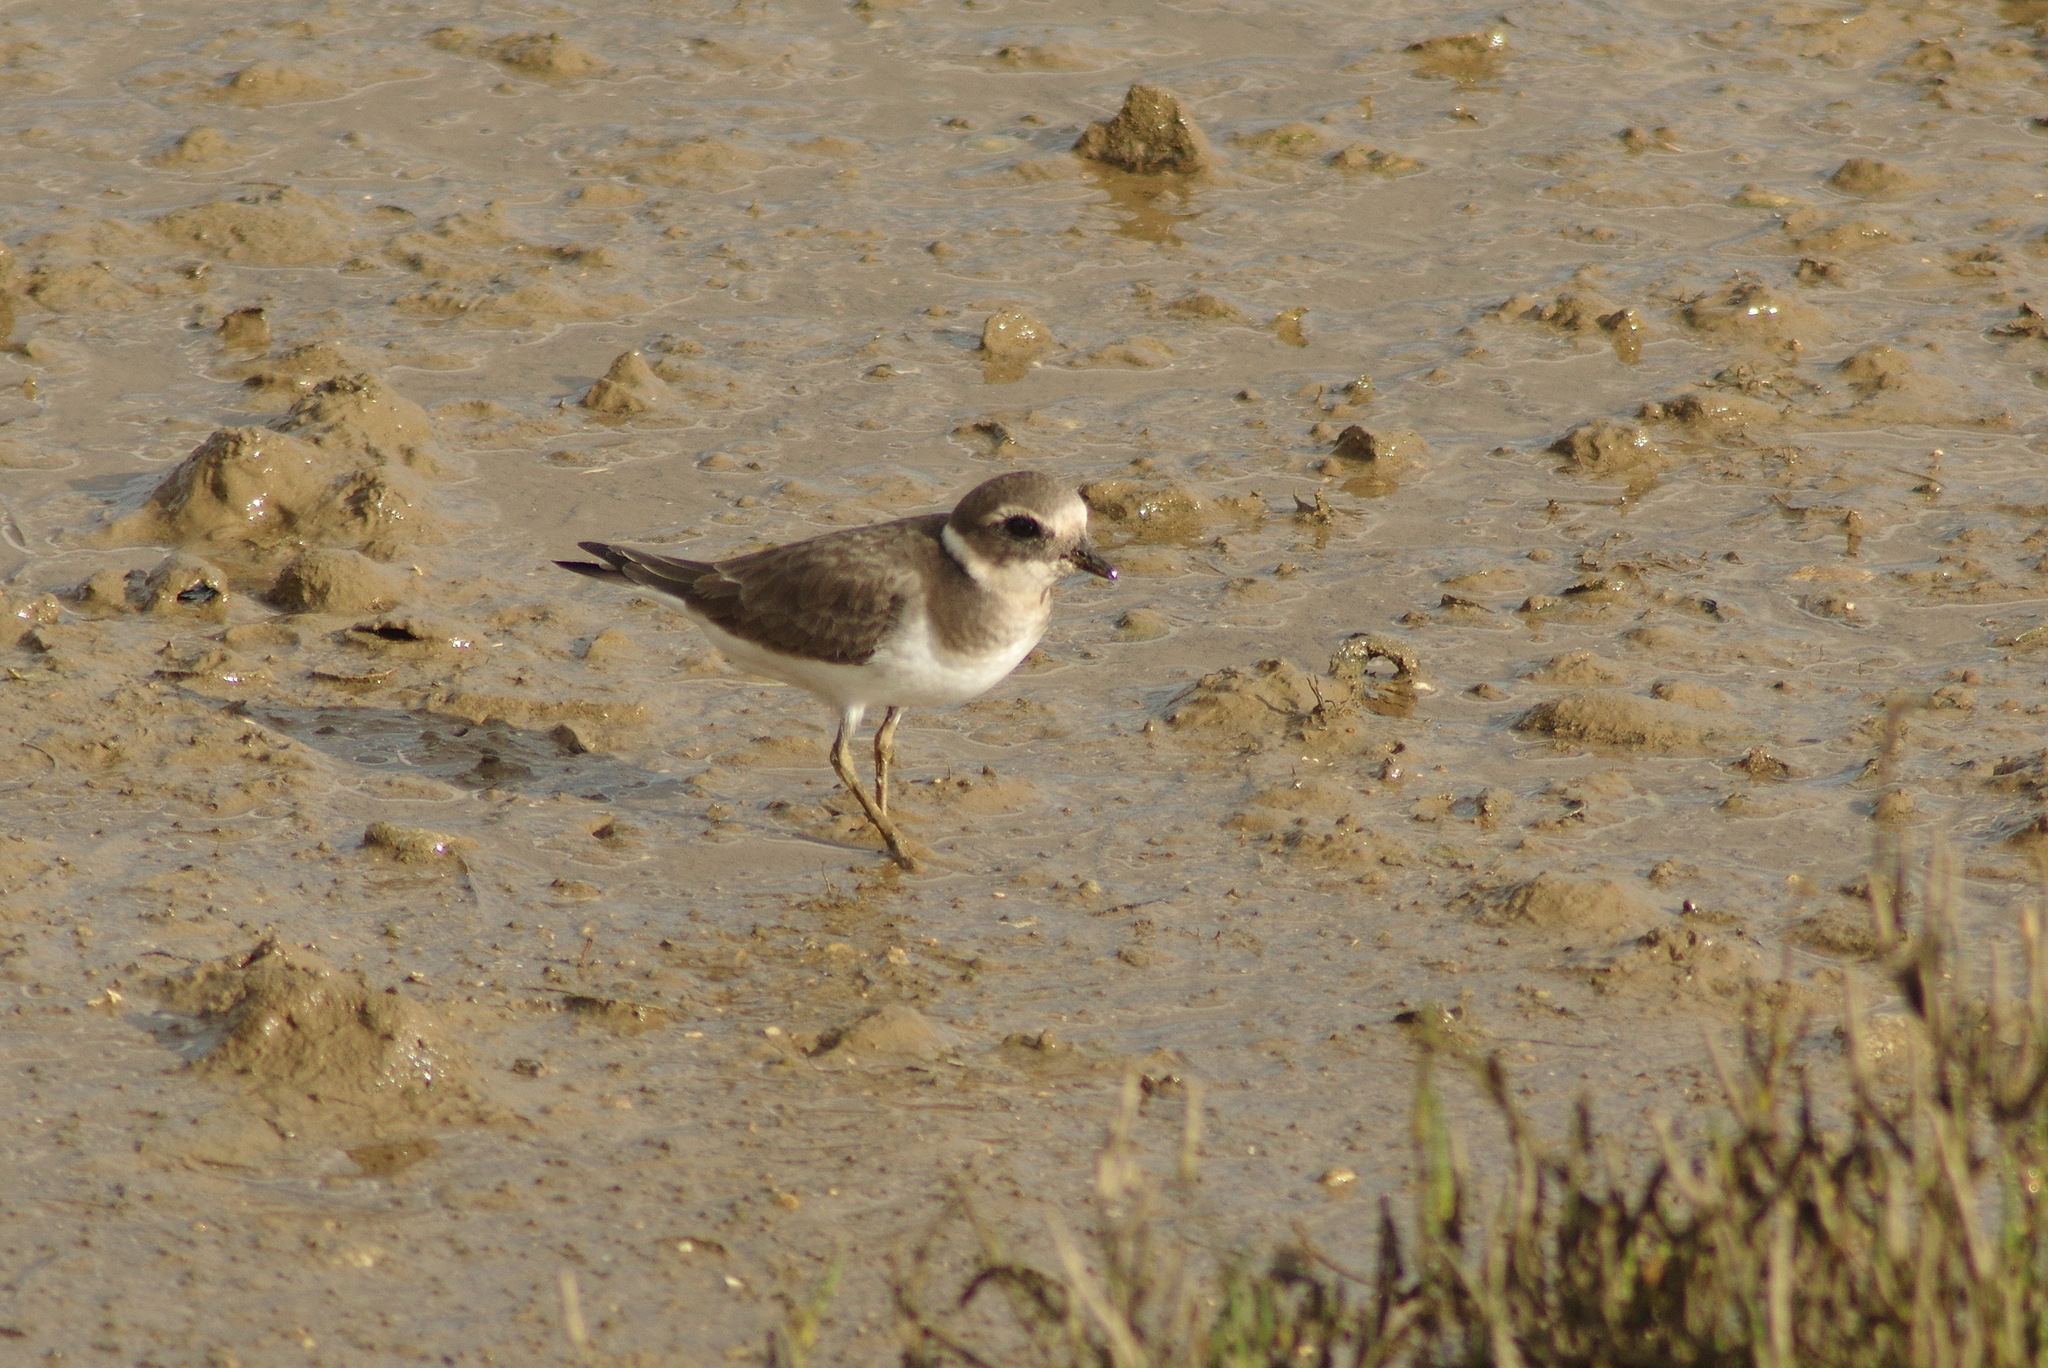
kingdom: Animalia
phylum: Chordata
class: Aves
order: Charadriiformes
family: Charadriidae
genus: Charadrius
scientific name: Charadrius hiaticula
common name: Common ringed plover
